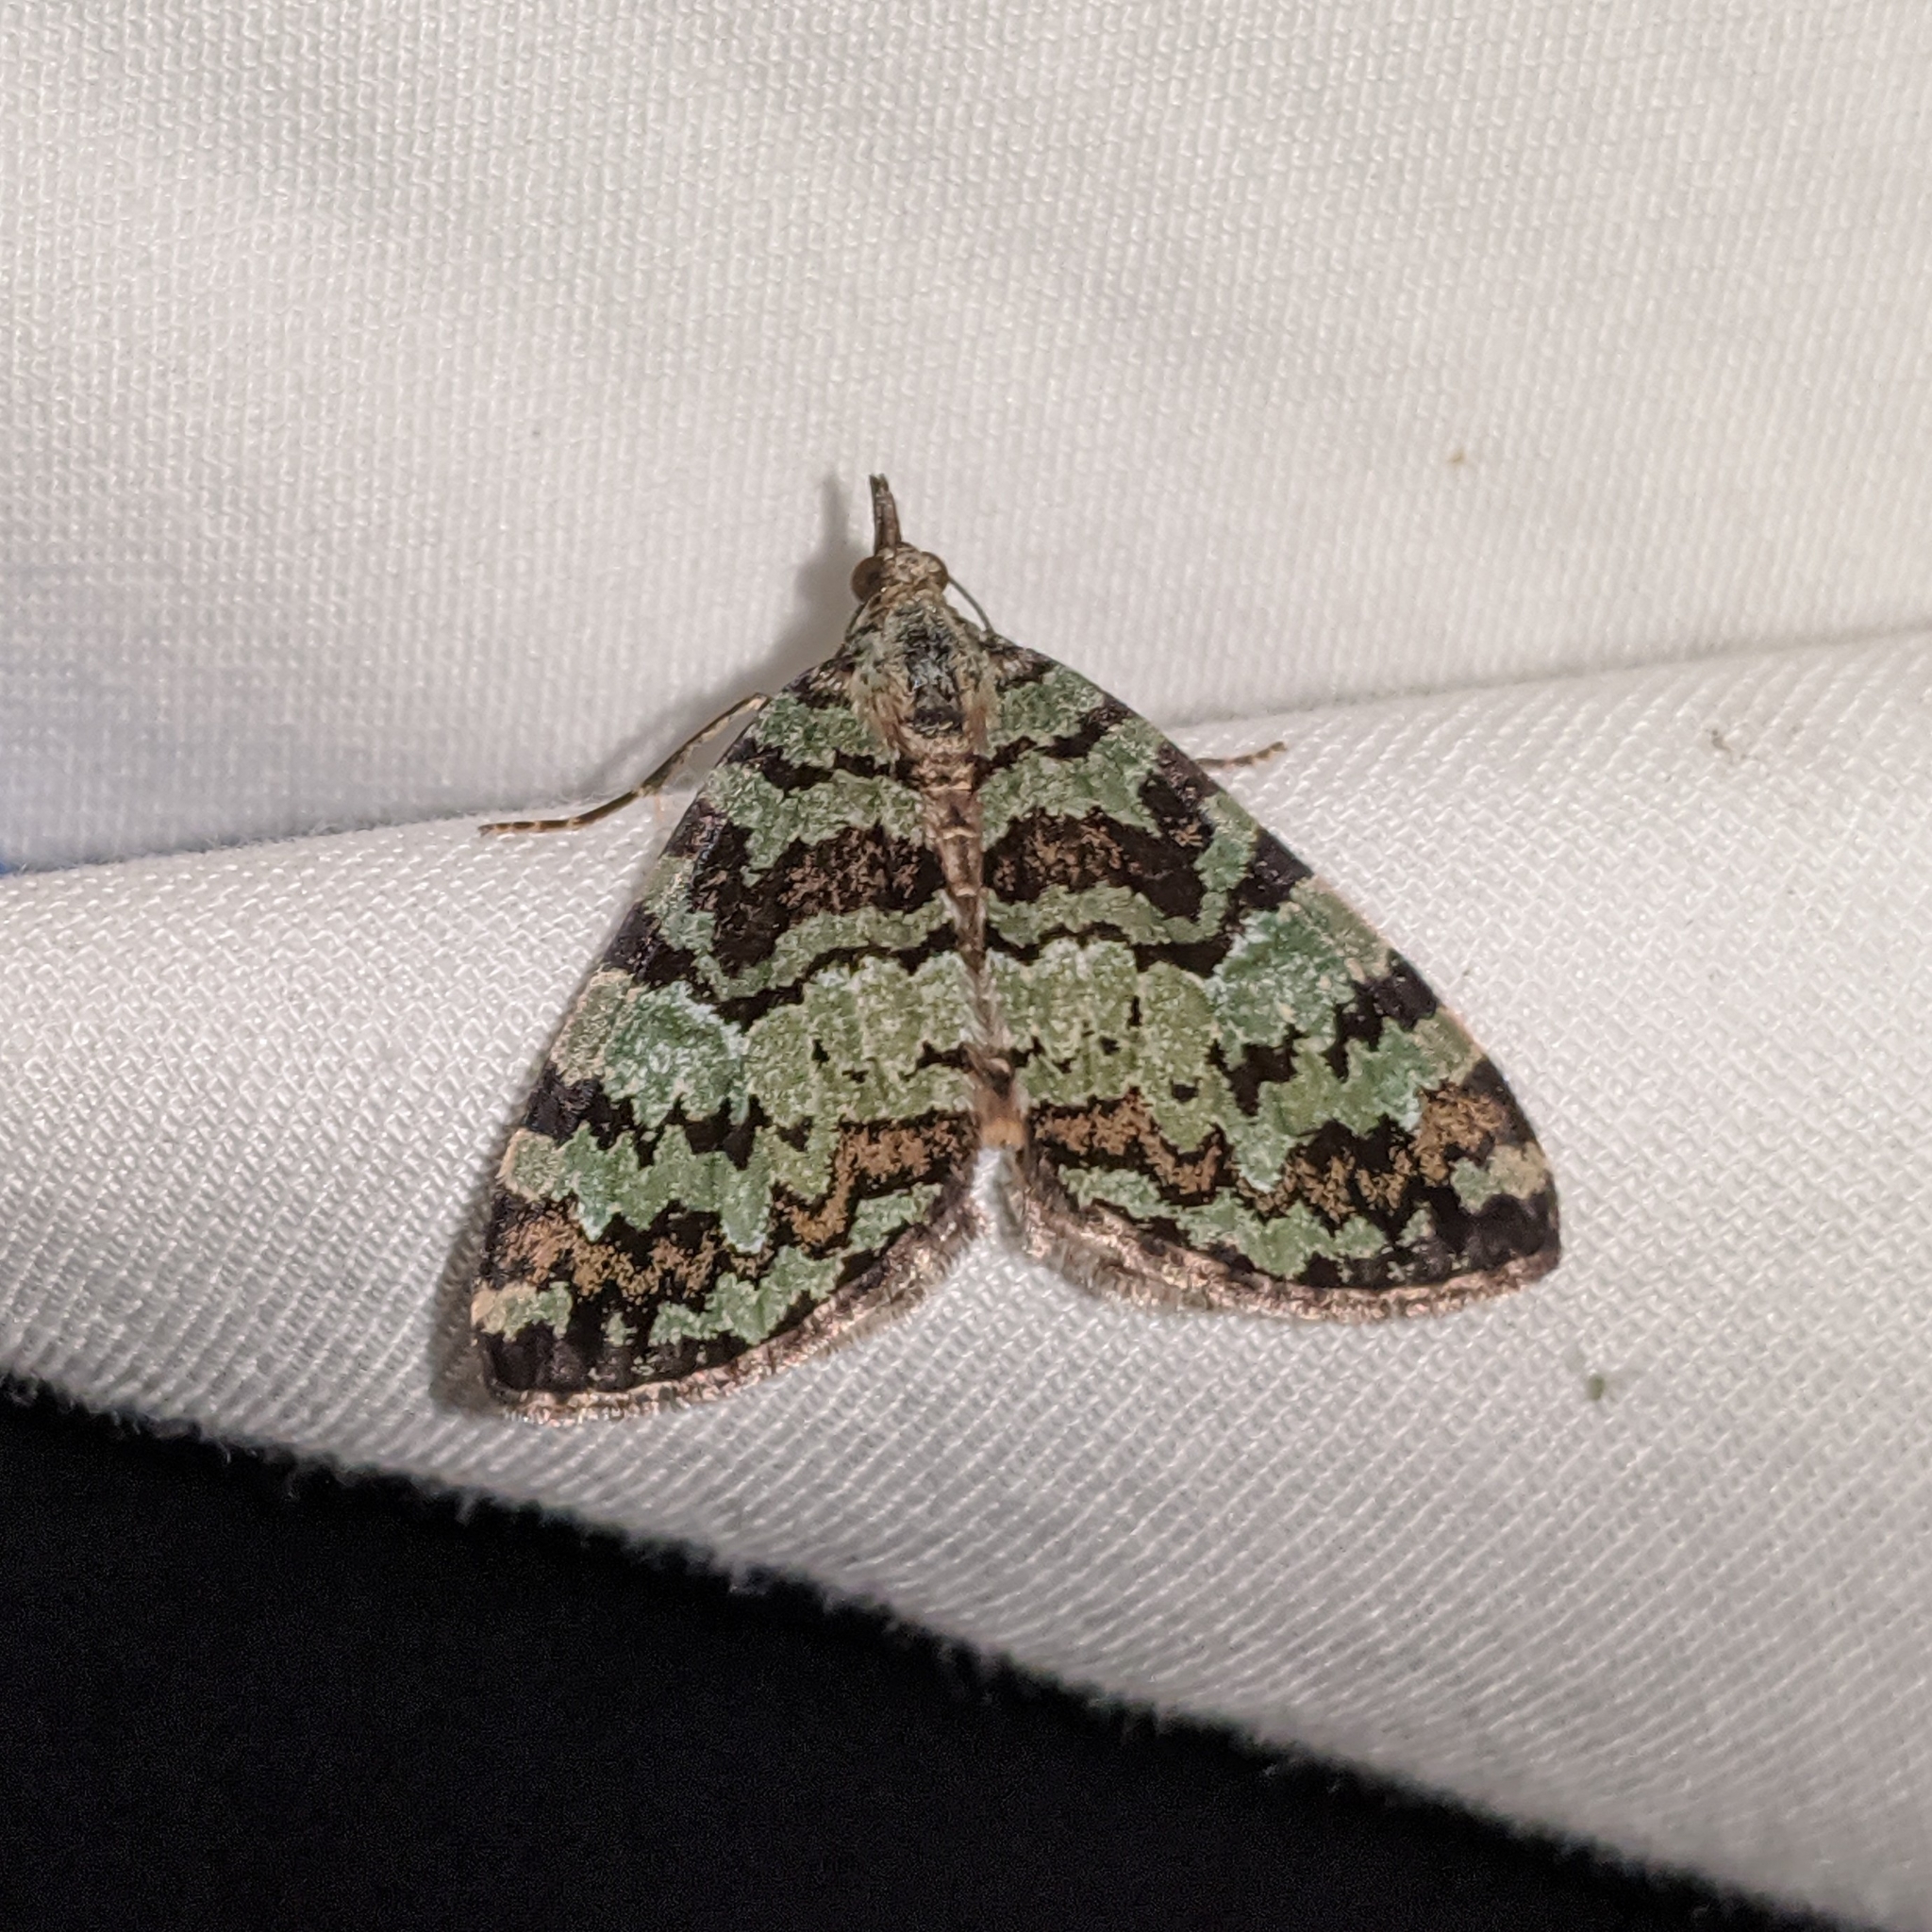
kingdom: Animalia
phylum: Arthropoda
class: Insecta
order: Lepidoptera
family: Geometridae
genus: Hydriomena
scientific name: Hydriomena speciosata
